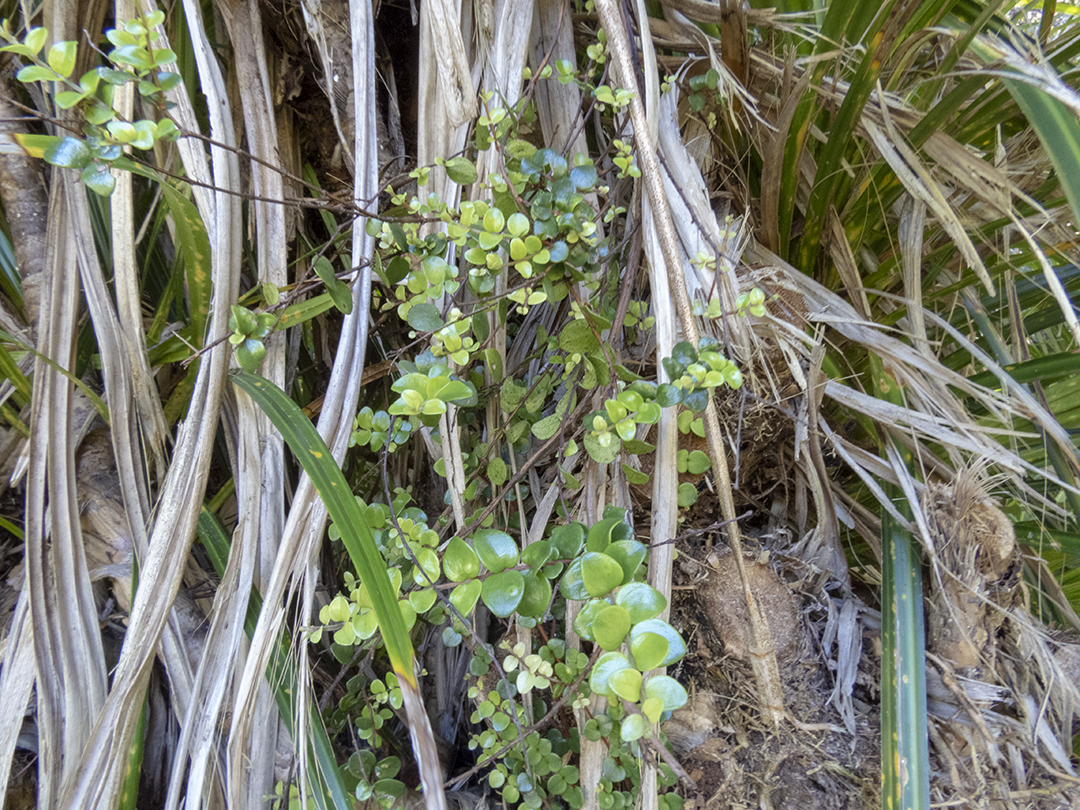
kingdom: Plantae
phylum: Tracheophyta
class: Magnoliopsida
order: Myrtales
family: Myrtaceae
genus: Metrosideros
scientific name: Metrosideros perforata
